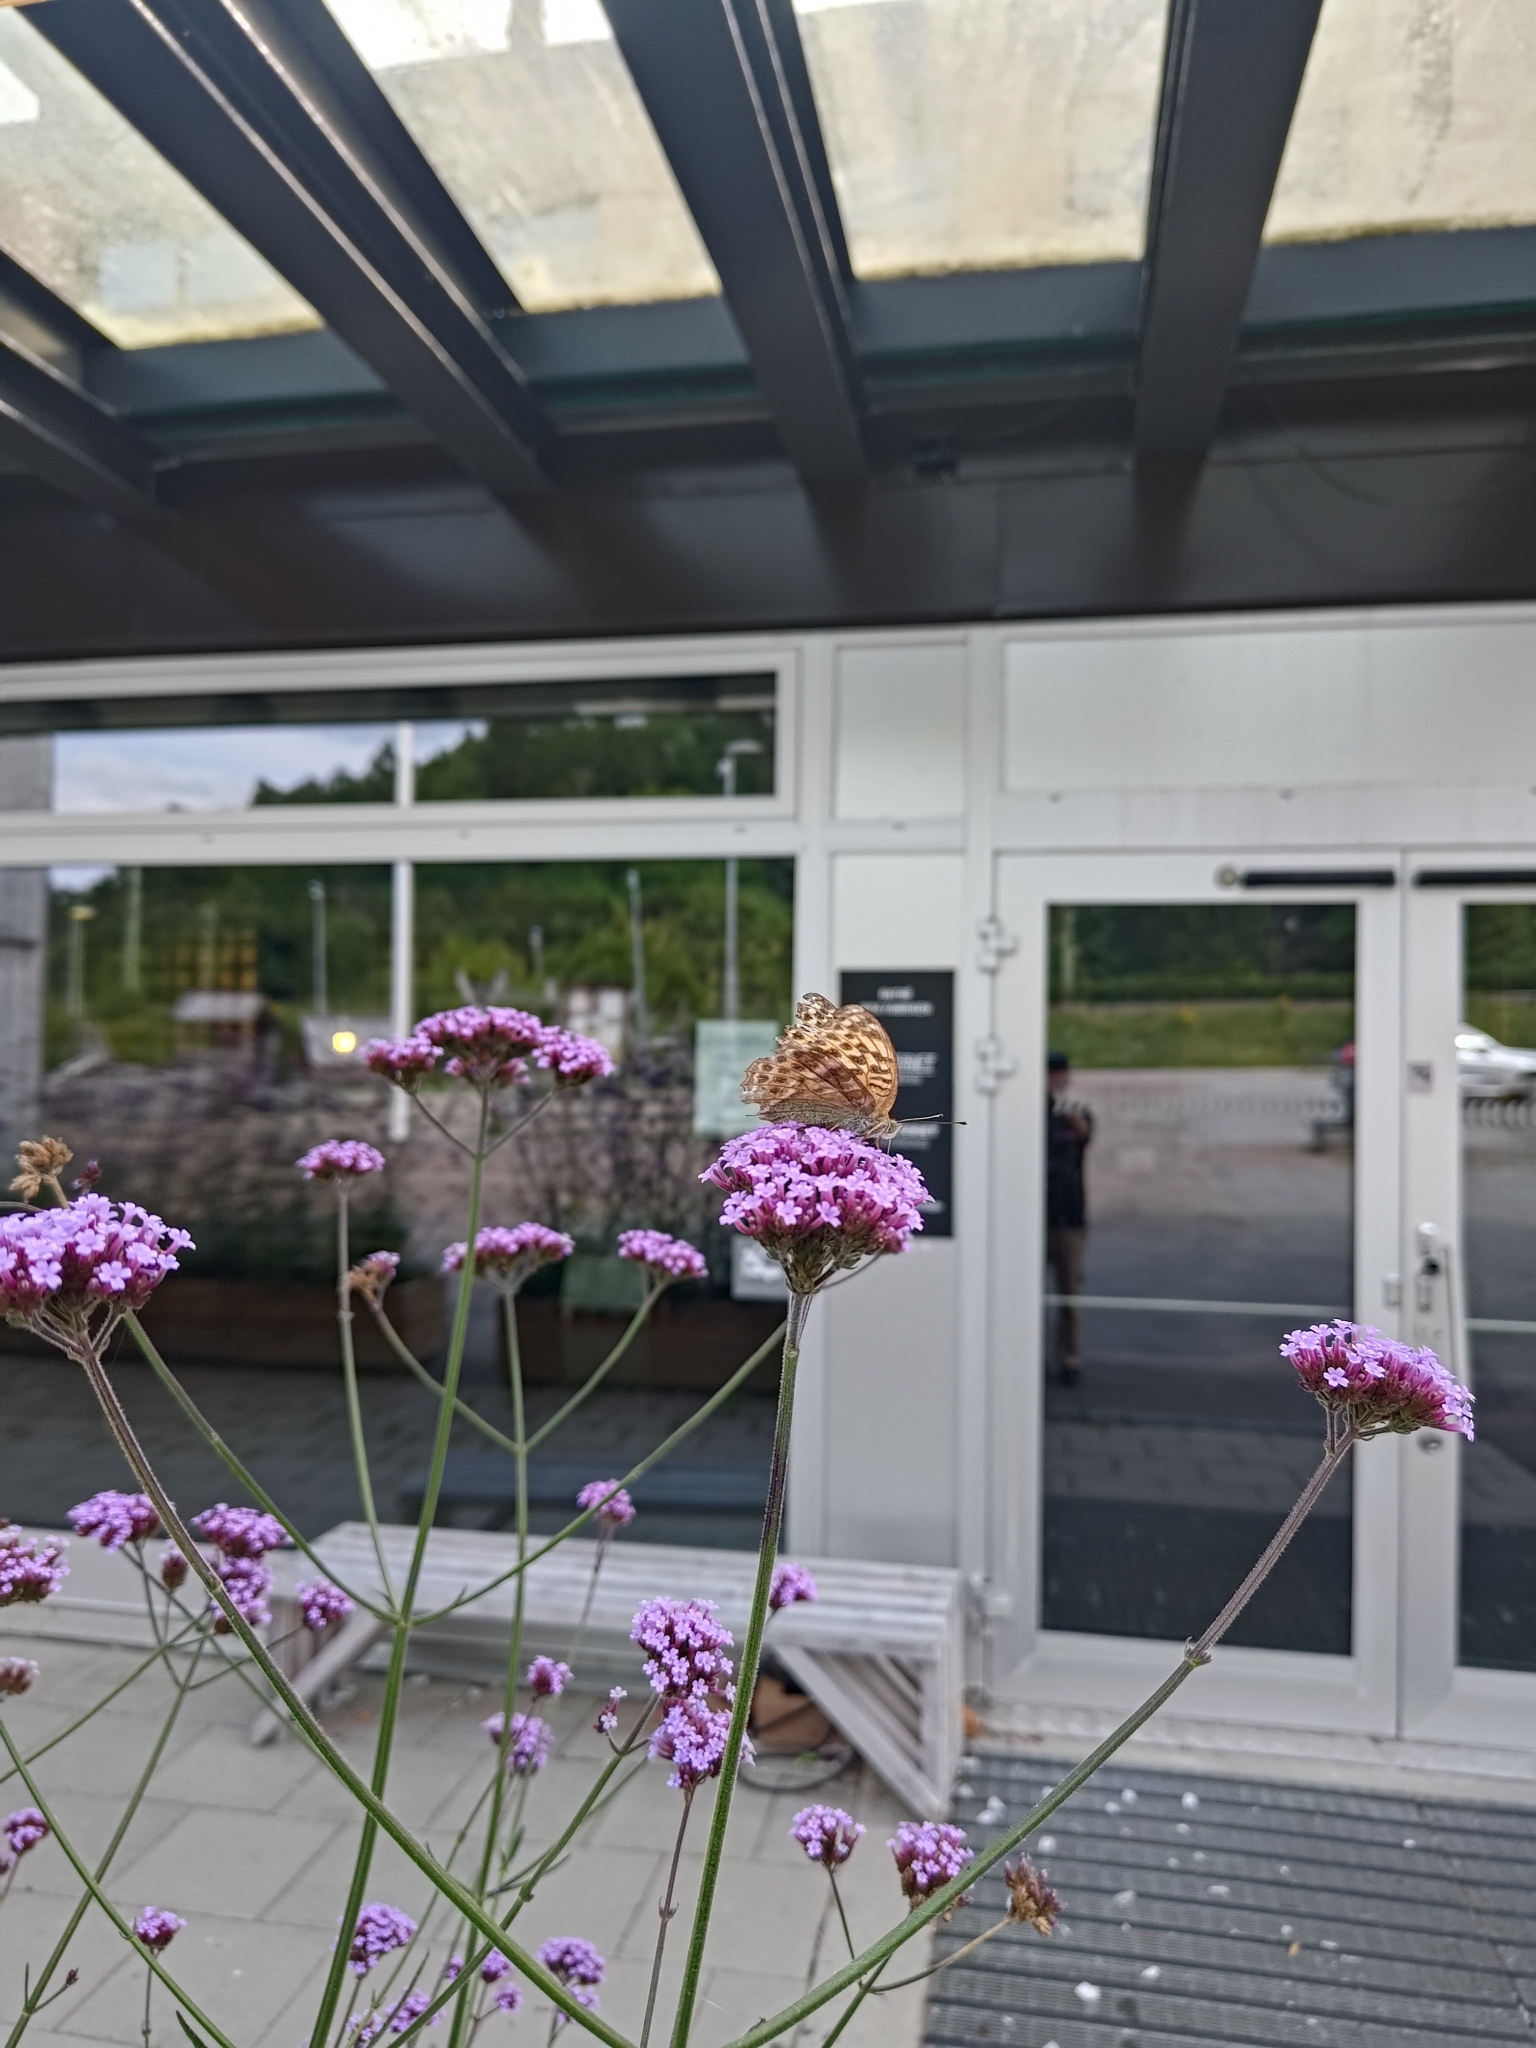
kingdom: Animalia
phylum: Arthropoda
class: Insecta
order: Lepidoptera
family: Nymphalidae
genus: Argynnis
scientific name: Argynnis paphia
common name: Silver-washed fritillary
